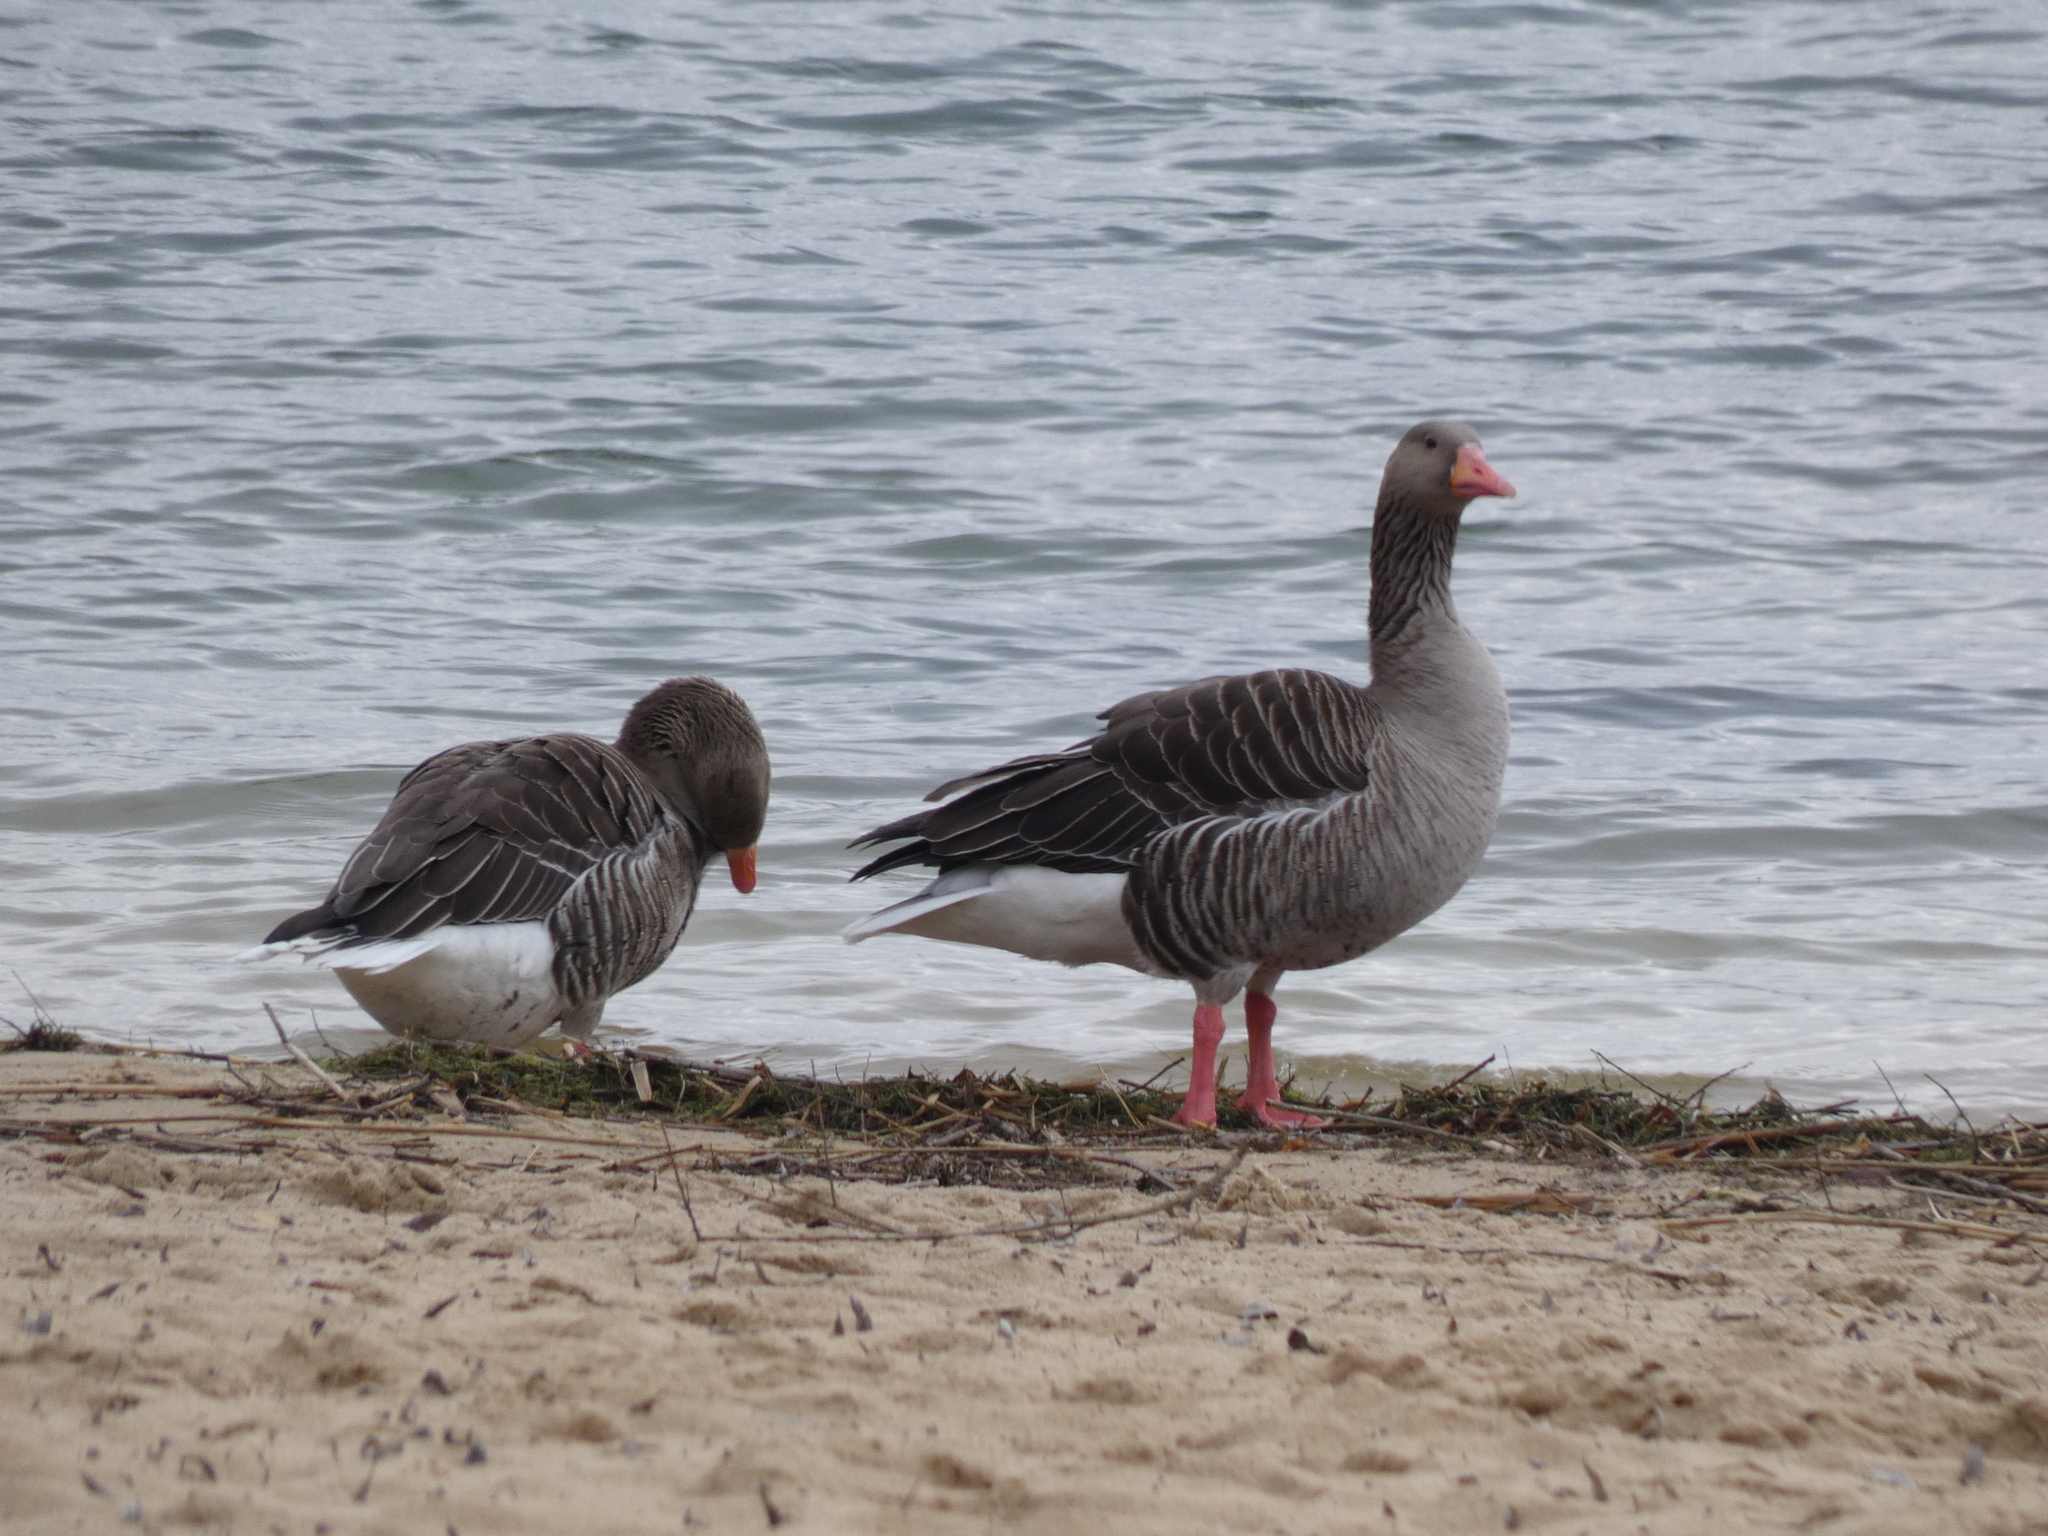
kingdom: Animalia
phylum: Chordata
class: Aves
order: Anseriformes
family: Anatidae
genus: Anser
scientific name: Anser anser
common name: Greylag goose
